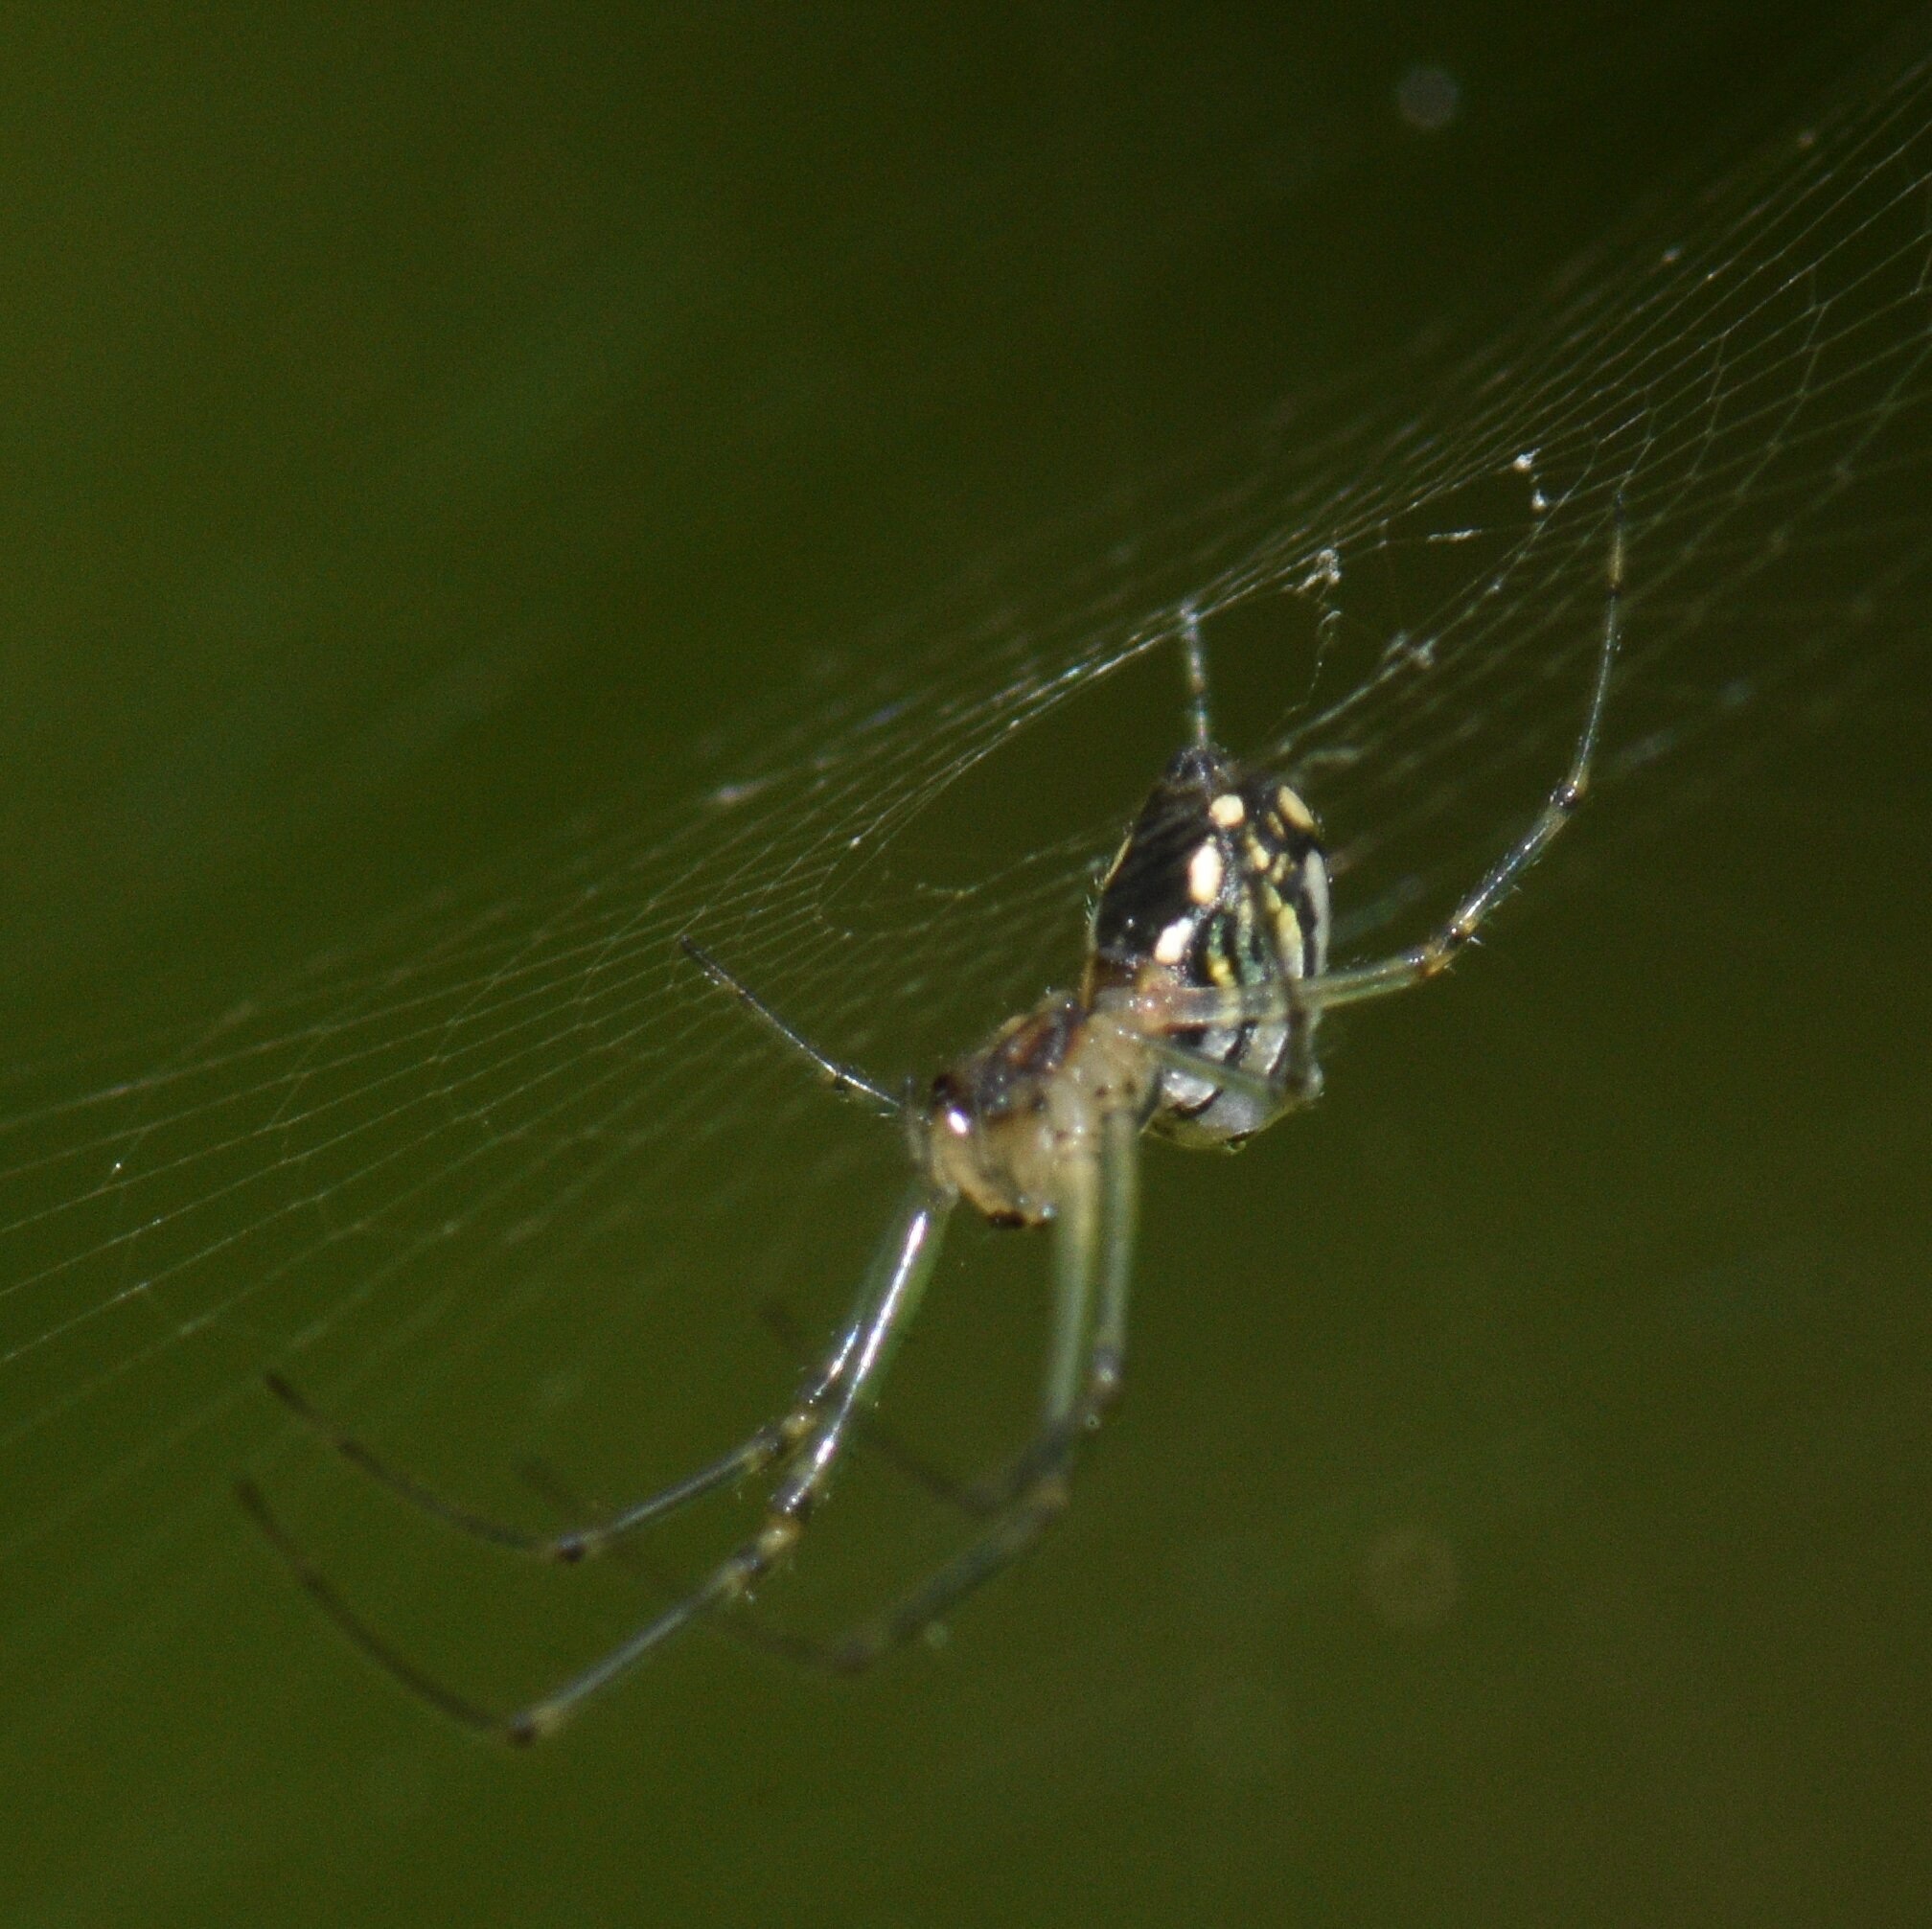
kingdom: Animalia
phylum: Arthropoda
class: Arachnida
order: Araneae
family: Tetragnathidae
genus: Leucauge
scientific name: Leucauge regnyi
